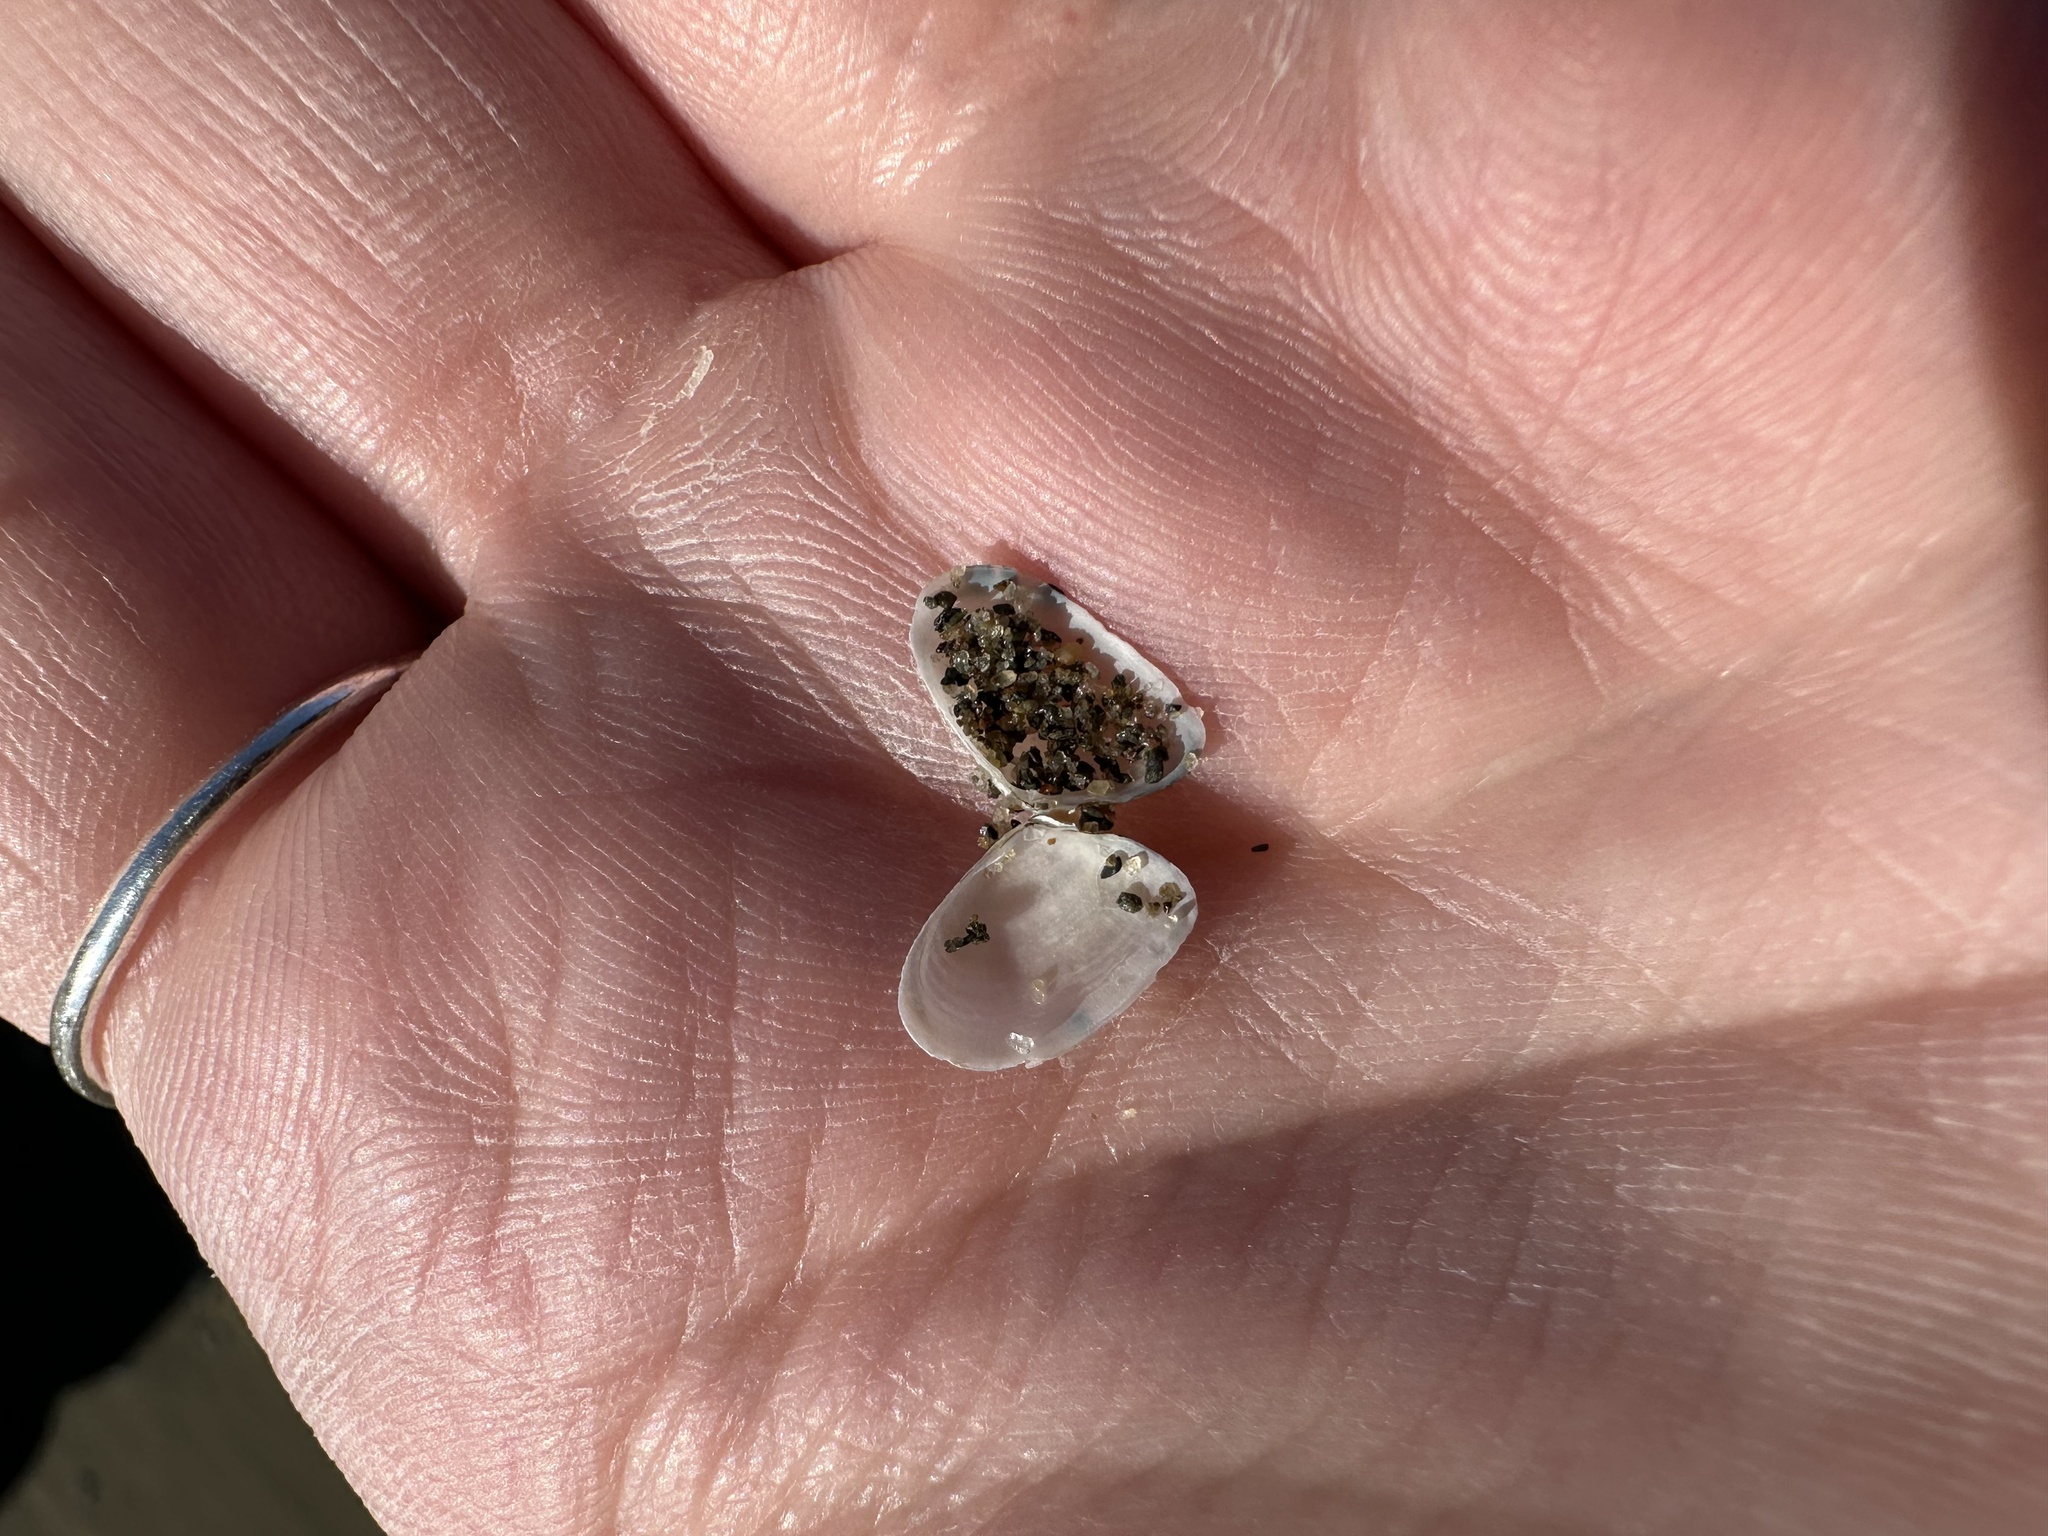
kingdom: Animalia
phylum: Mollusca
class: Bivalvia
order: Cardiida
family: Tellinidae
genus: Ameritella
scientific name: Ameritella agilis
